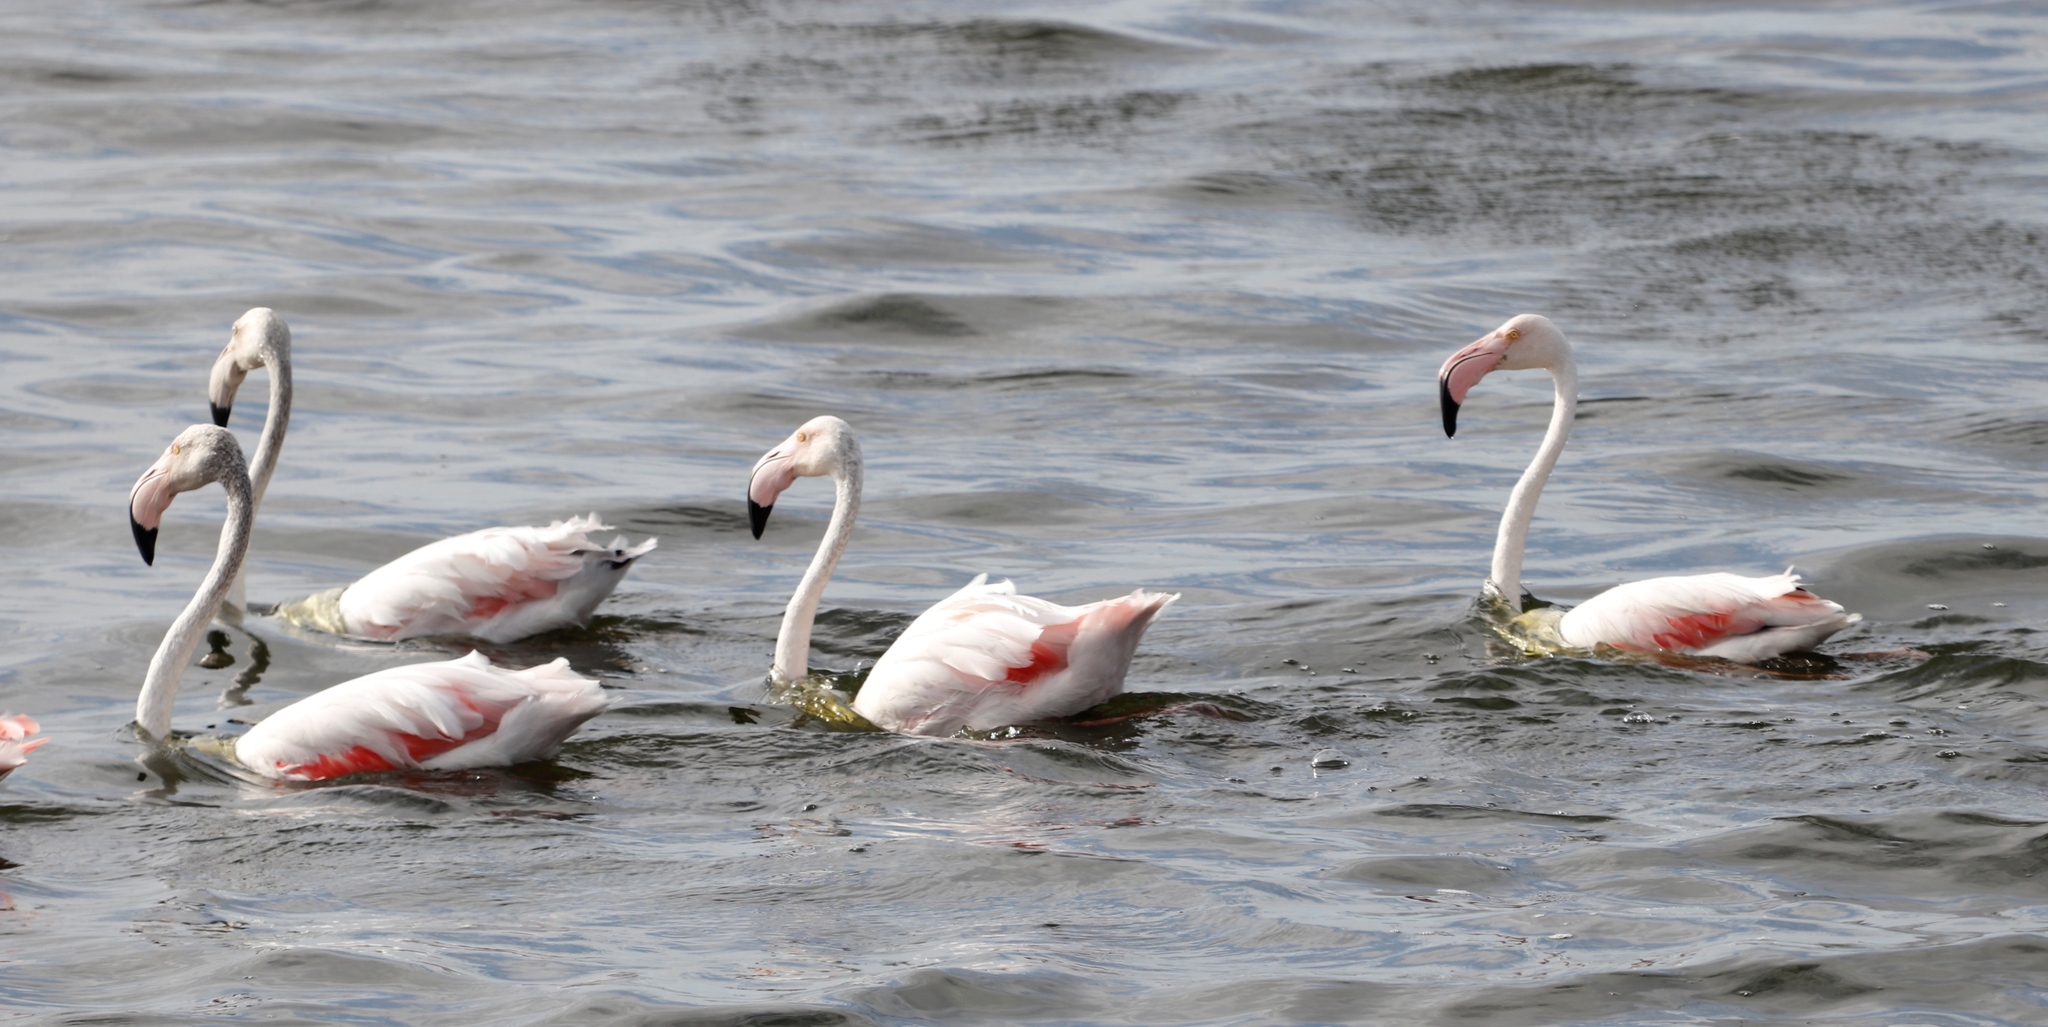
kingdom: Animalia
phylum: Chordata
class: Aves
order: Phoenicopteriformes
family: Phoenicopteridae
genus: Phoenicopterus
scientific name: Phoenicopterus roseus
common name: Greater flamingo
